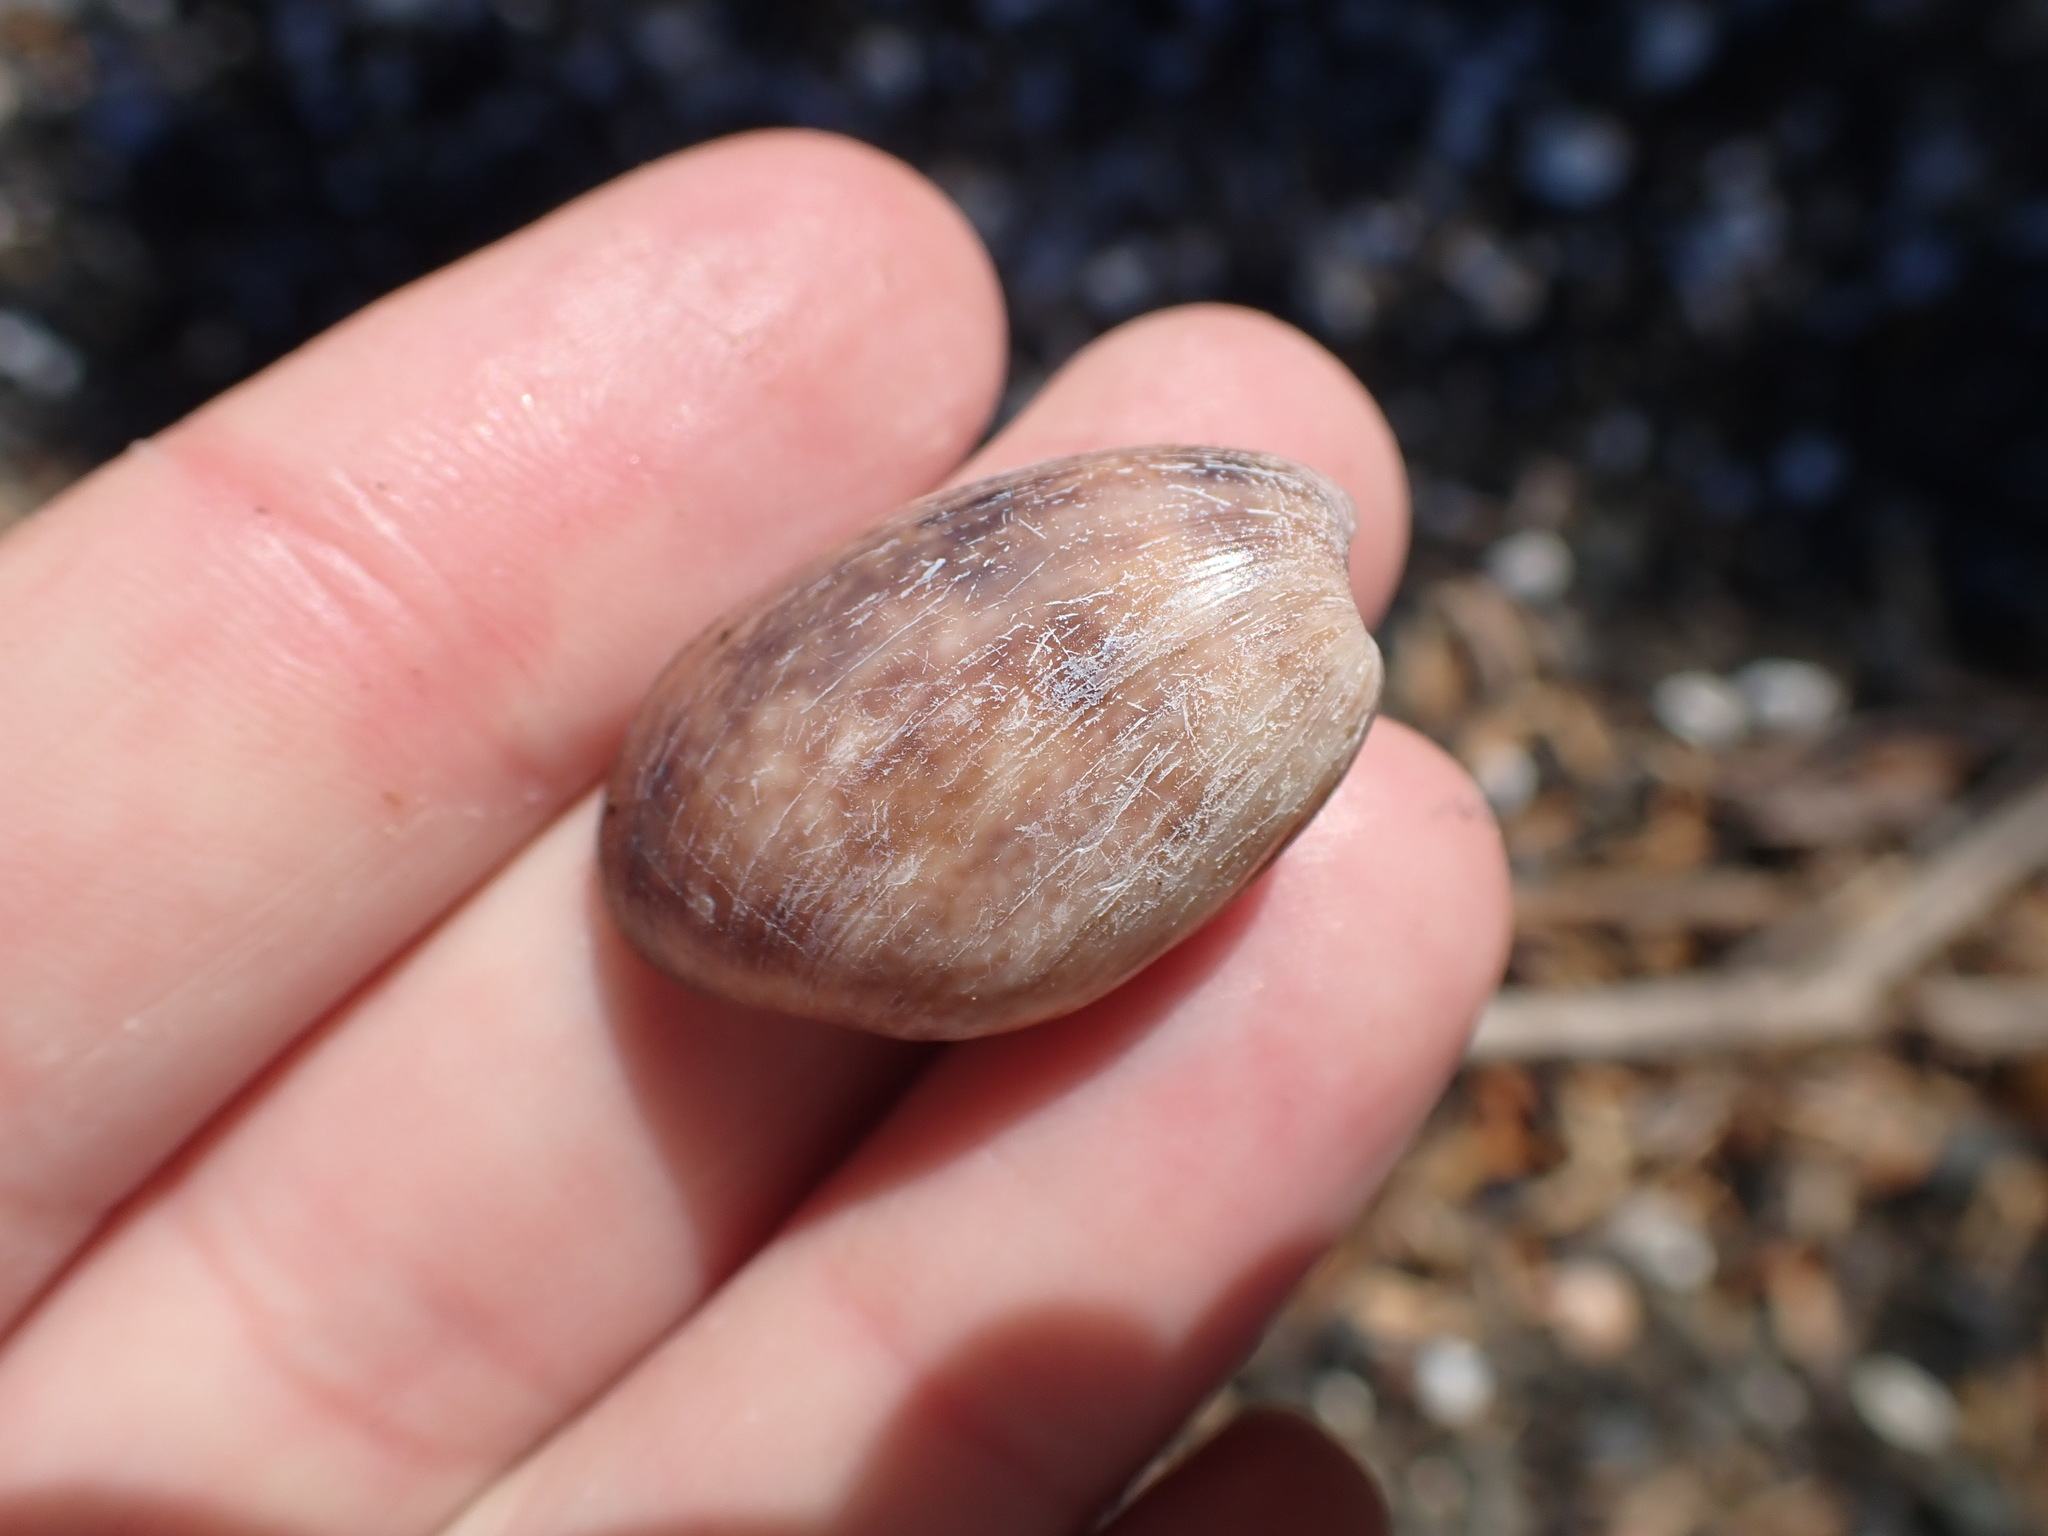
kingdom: Animalia
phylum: Mollusca
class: Gastropoda
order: Cephalaspidea
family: Bullidae
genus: Bulla
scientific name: Bulla quoyii
